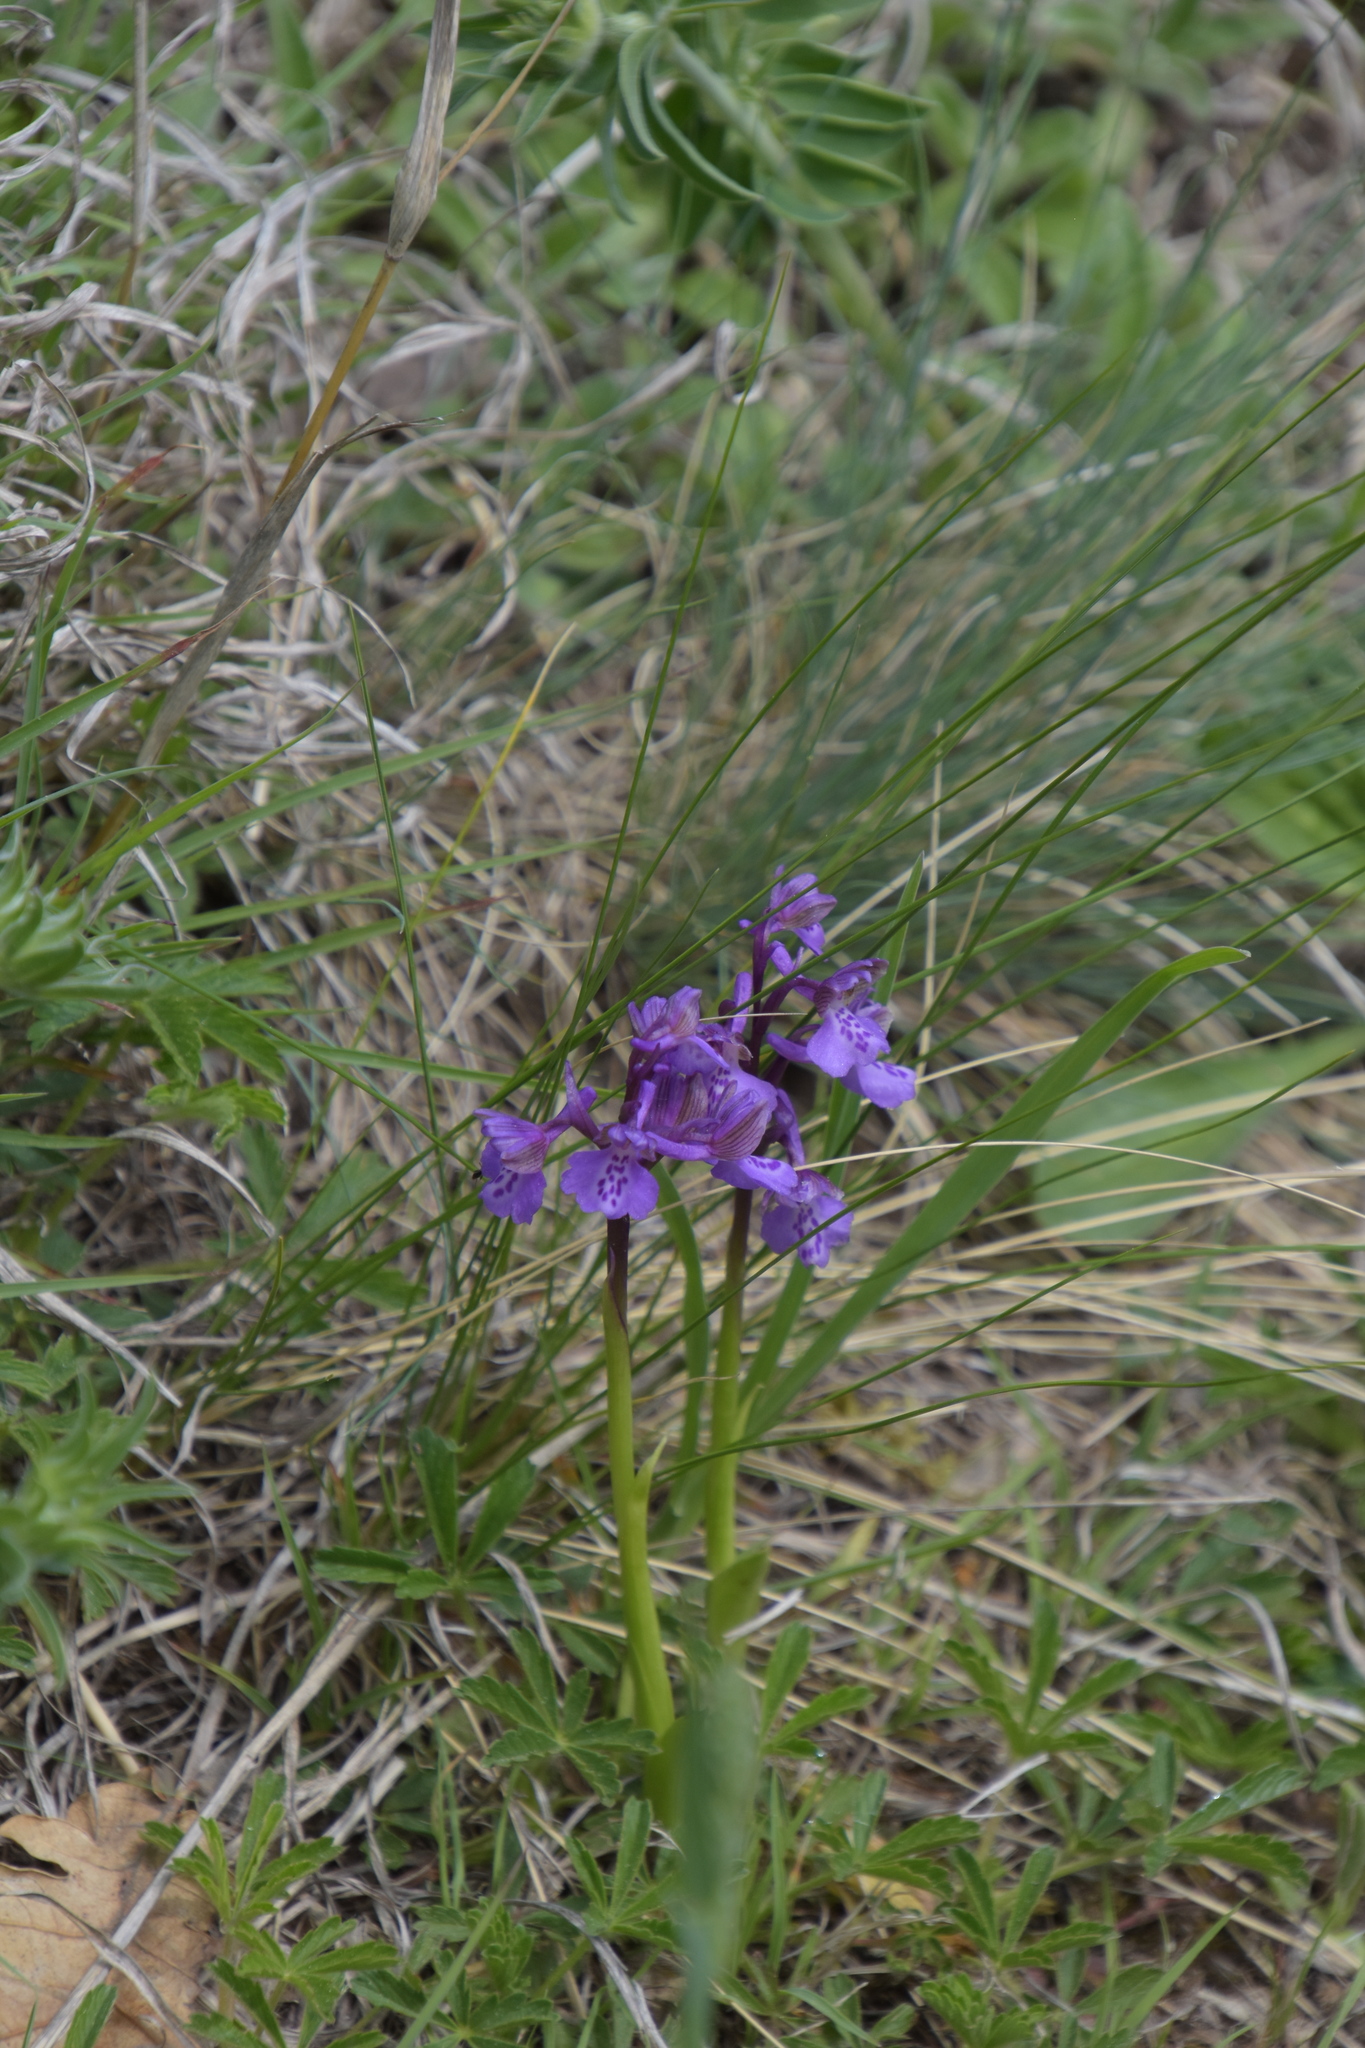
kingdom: Plantae
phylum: Tracheophyta
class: Liliopsida
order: Asparagales
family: Orchidaceae
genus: Anacamptis
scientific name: Anacamptis morio
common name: Green-winged orchid
